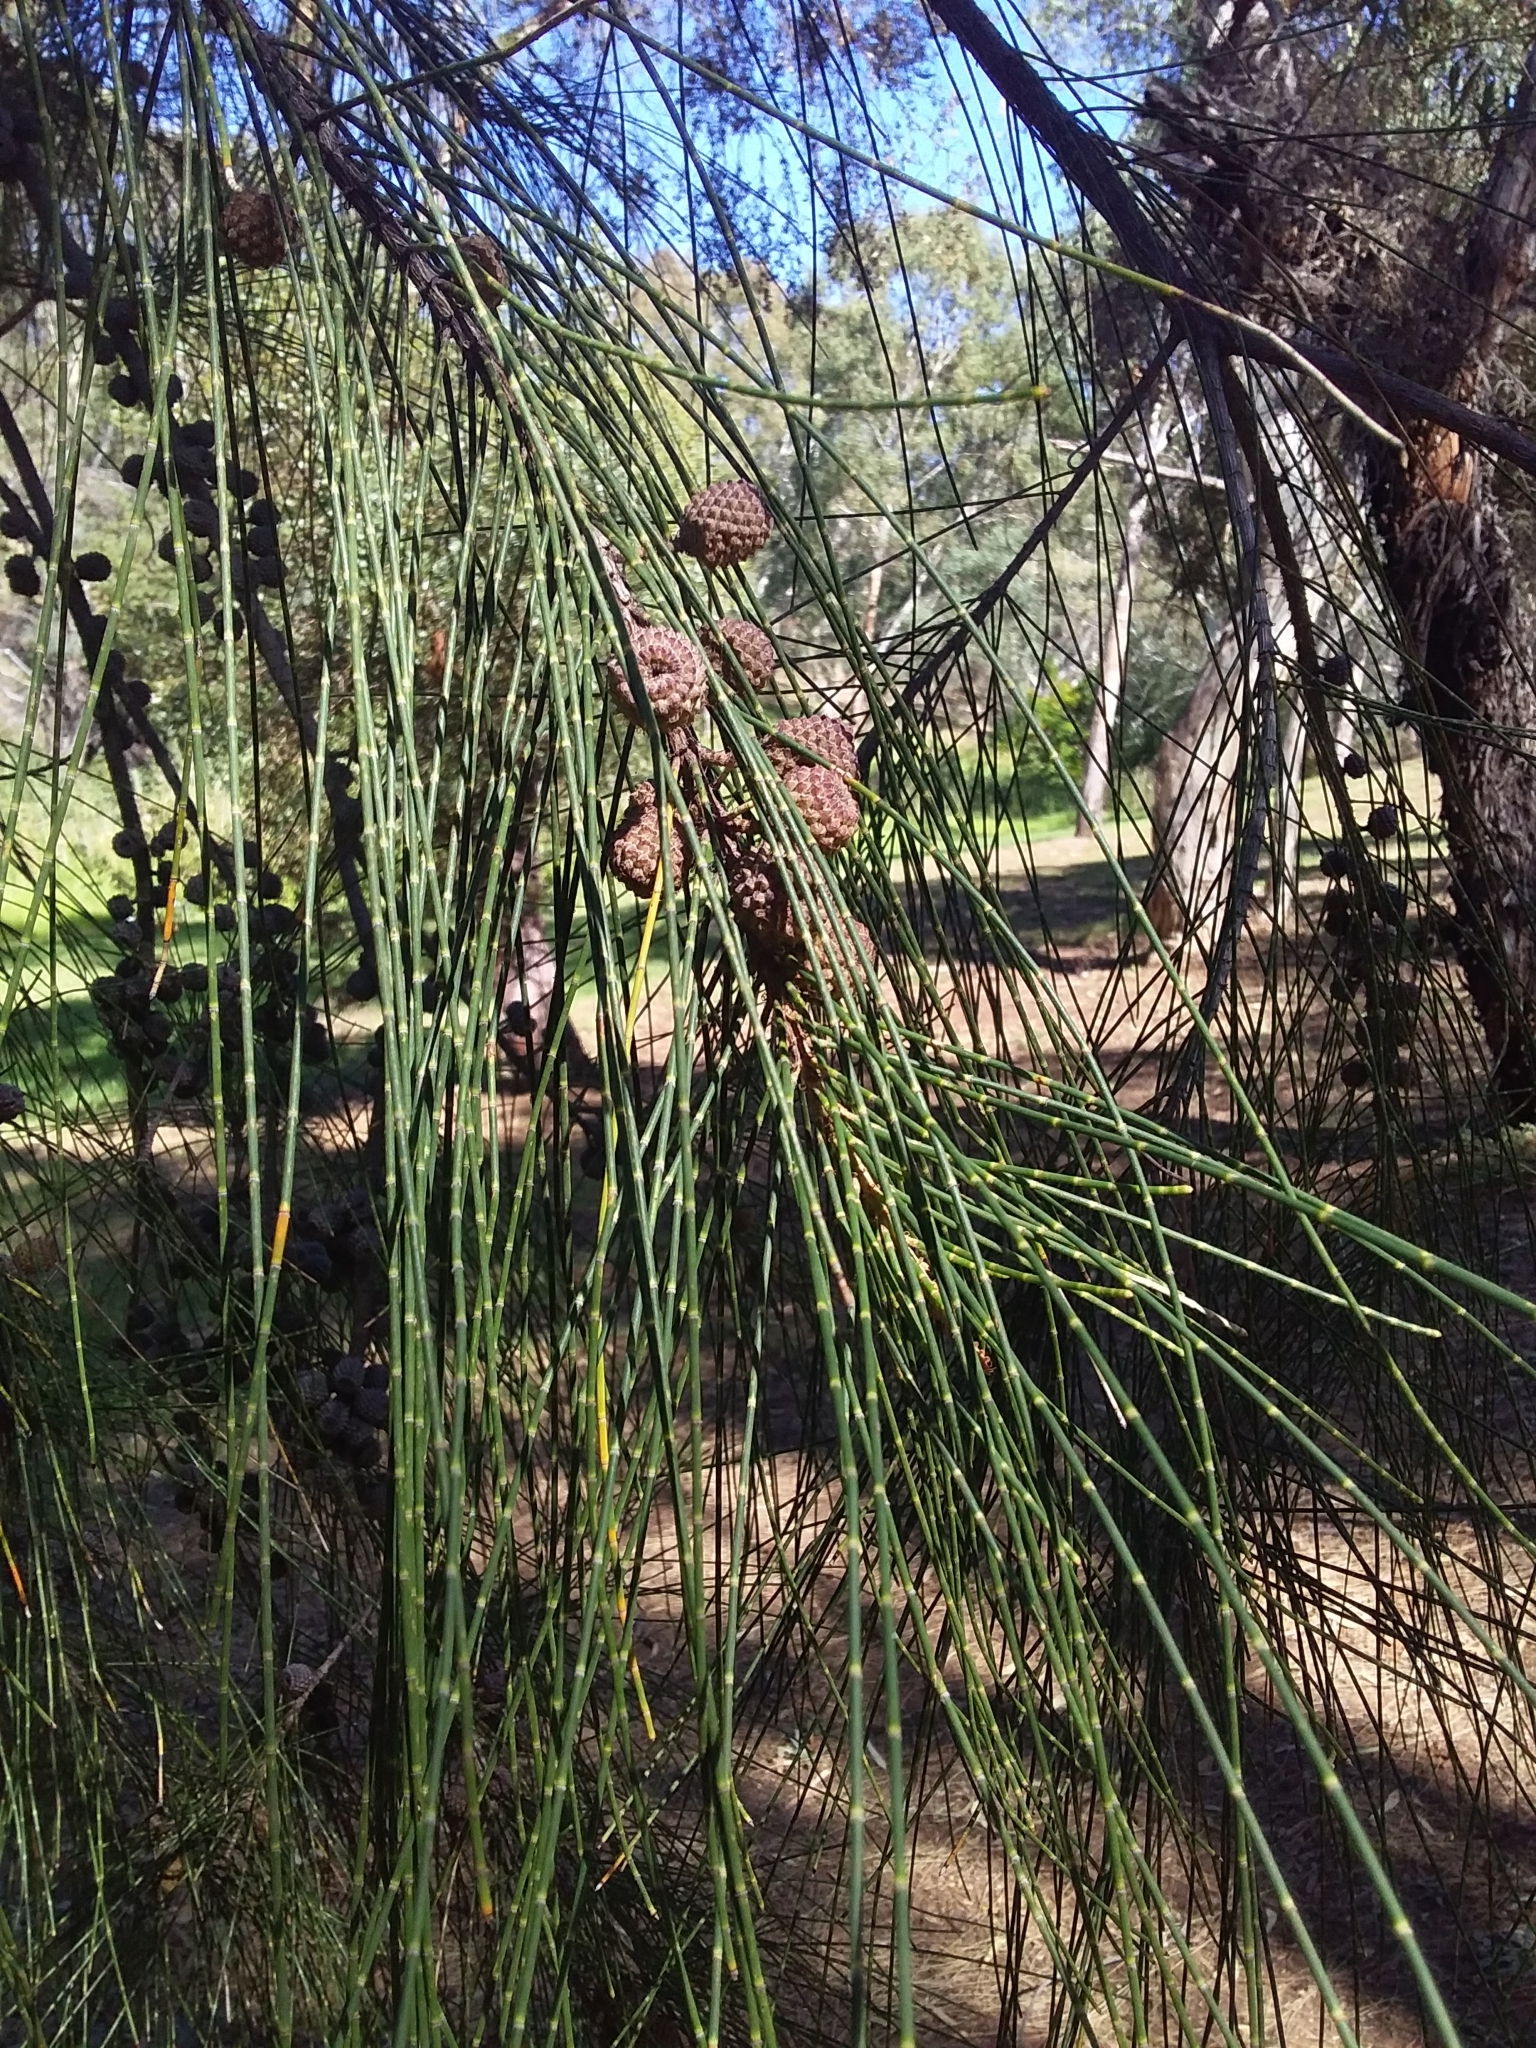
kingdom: Plantae
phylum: Tracheophyta
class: Magnoliopsida
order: Fagales
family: Casuarinaceae
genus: Casuarina
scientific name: Casuarina glauca
